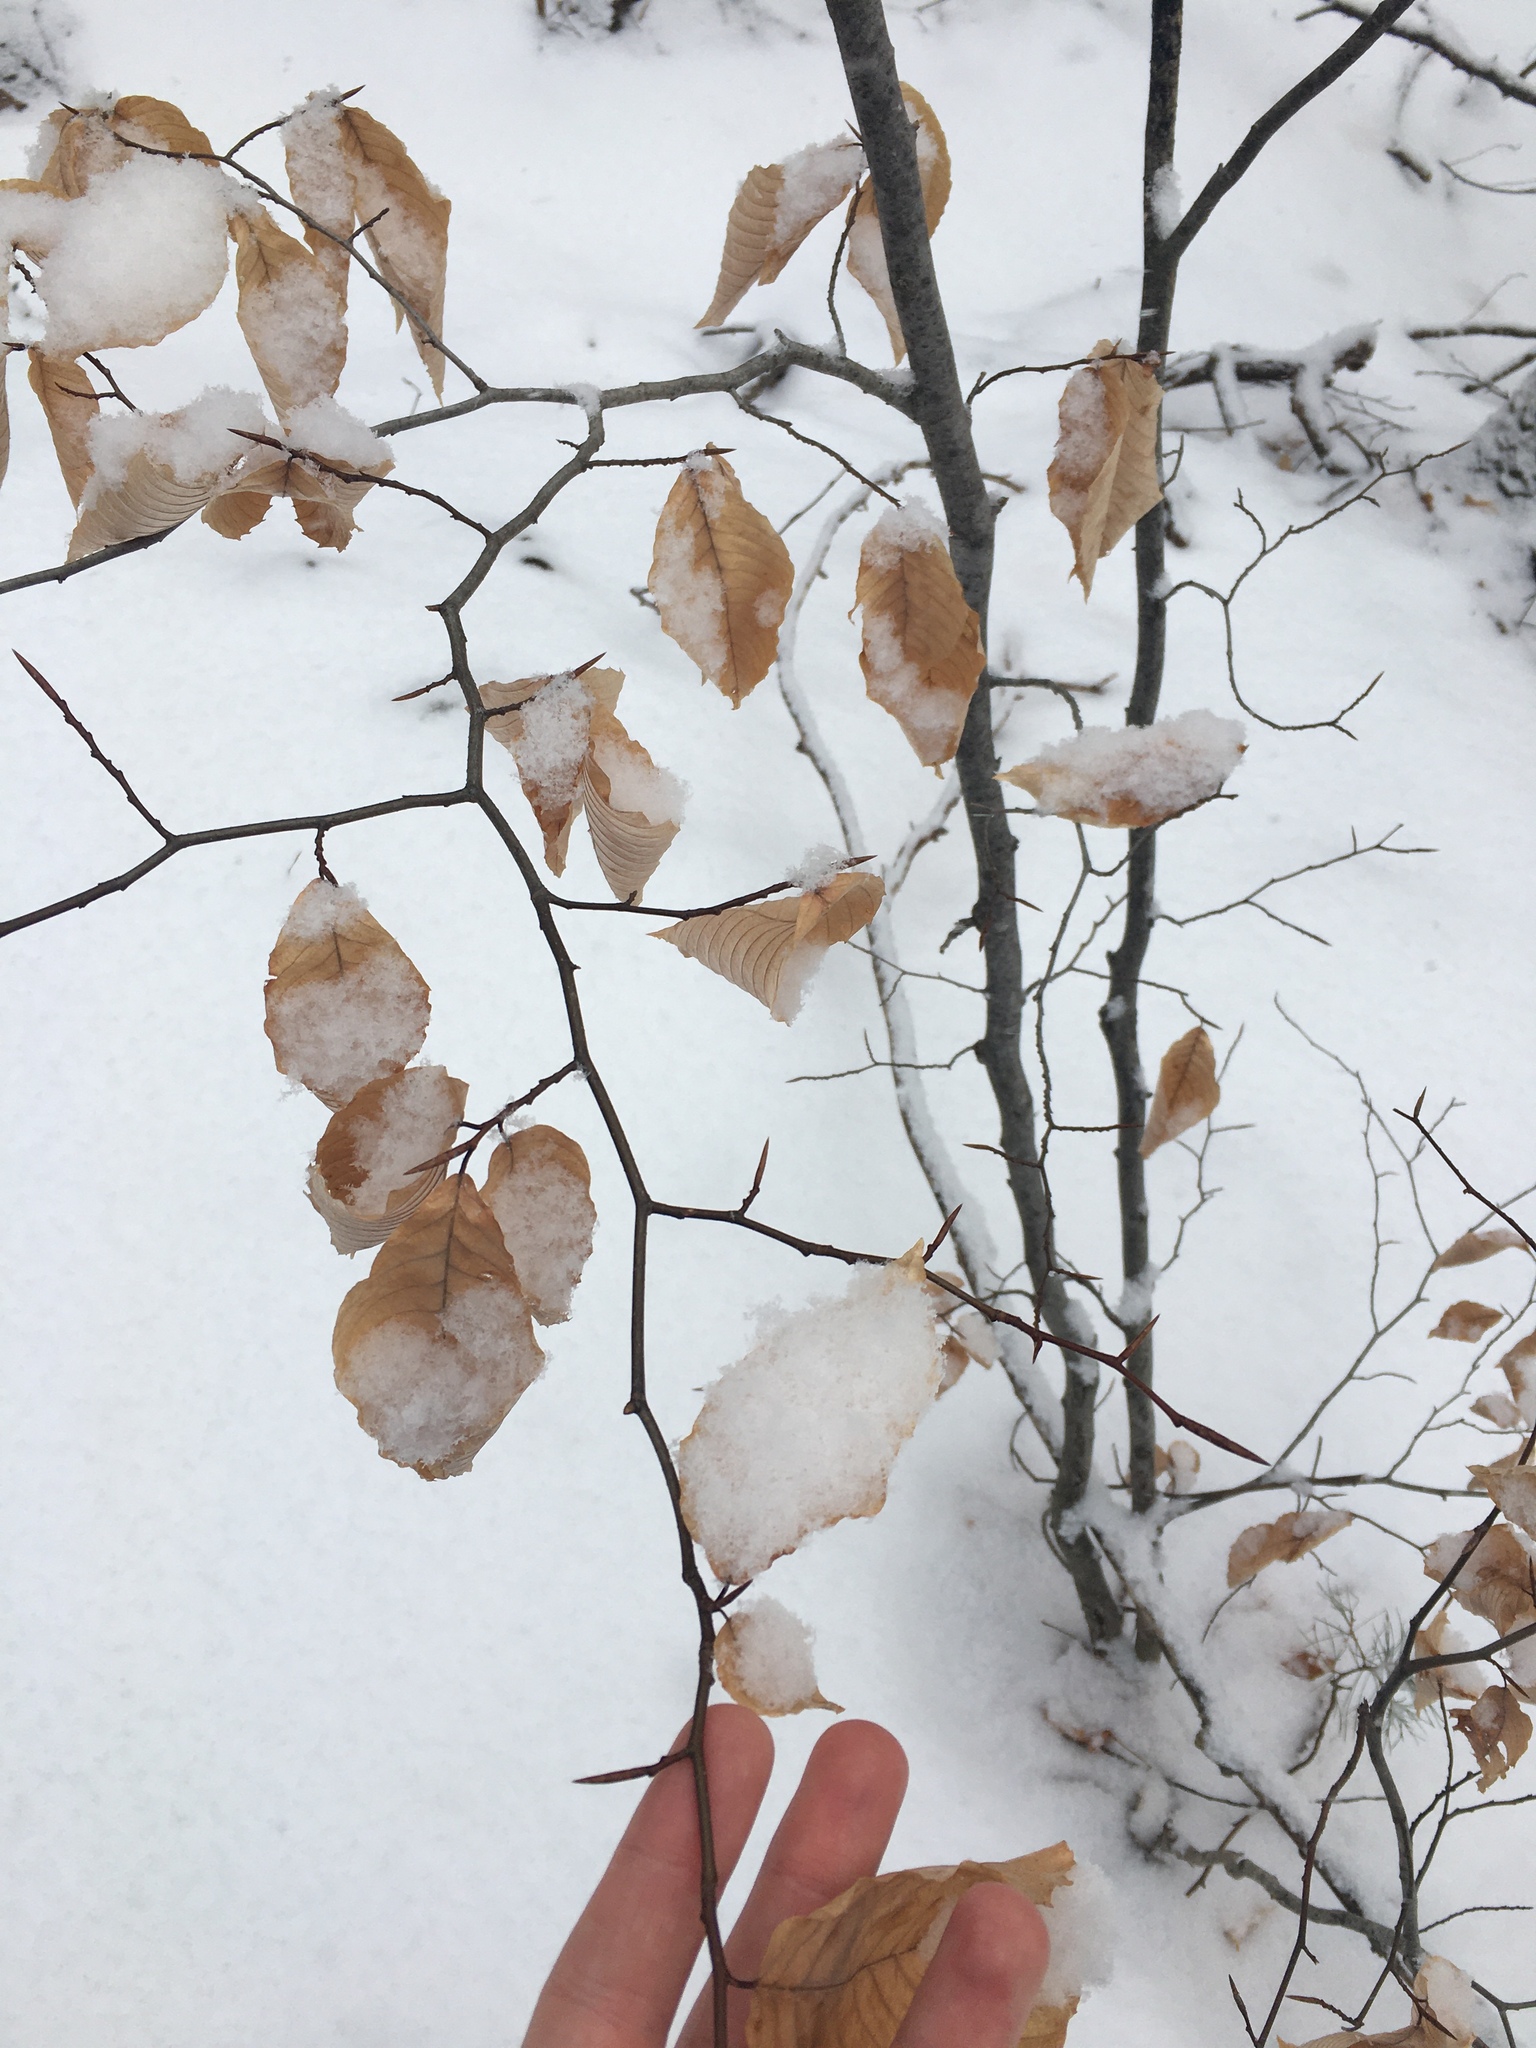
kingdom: Plantae
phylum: Tracheophyta
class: Magnoliopsida
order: Fagales
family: Fagaceae
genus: Fagus
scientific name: Fagus grandifolia
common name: American beech
